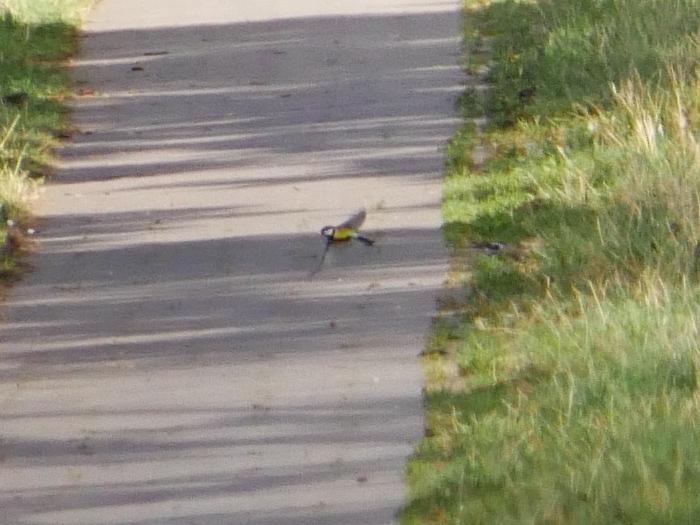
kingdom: Animalia
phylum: Chordata
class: Aves
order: Passeriformes
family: Paridae
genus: Parus
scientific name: Parus major
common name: Great tit
